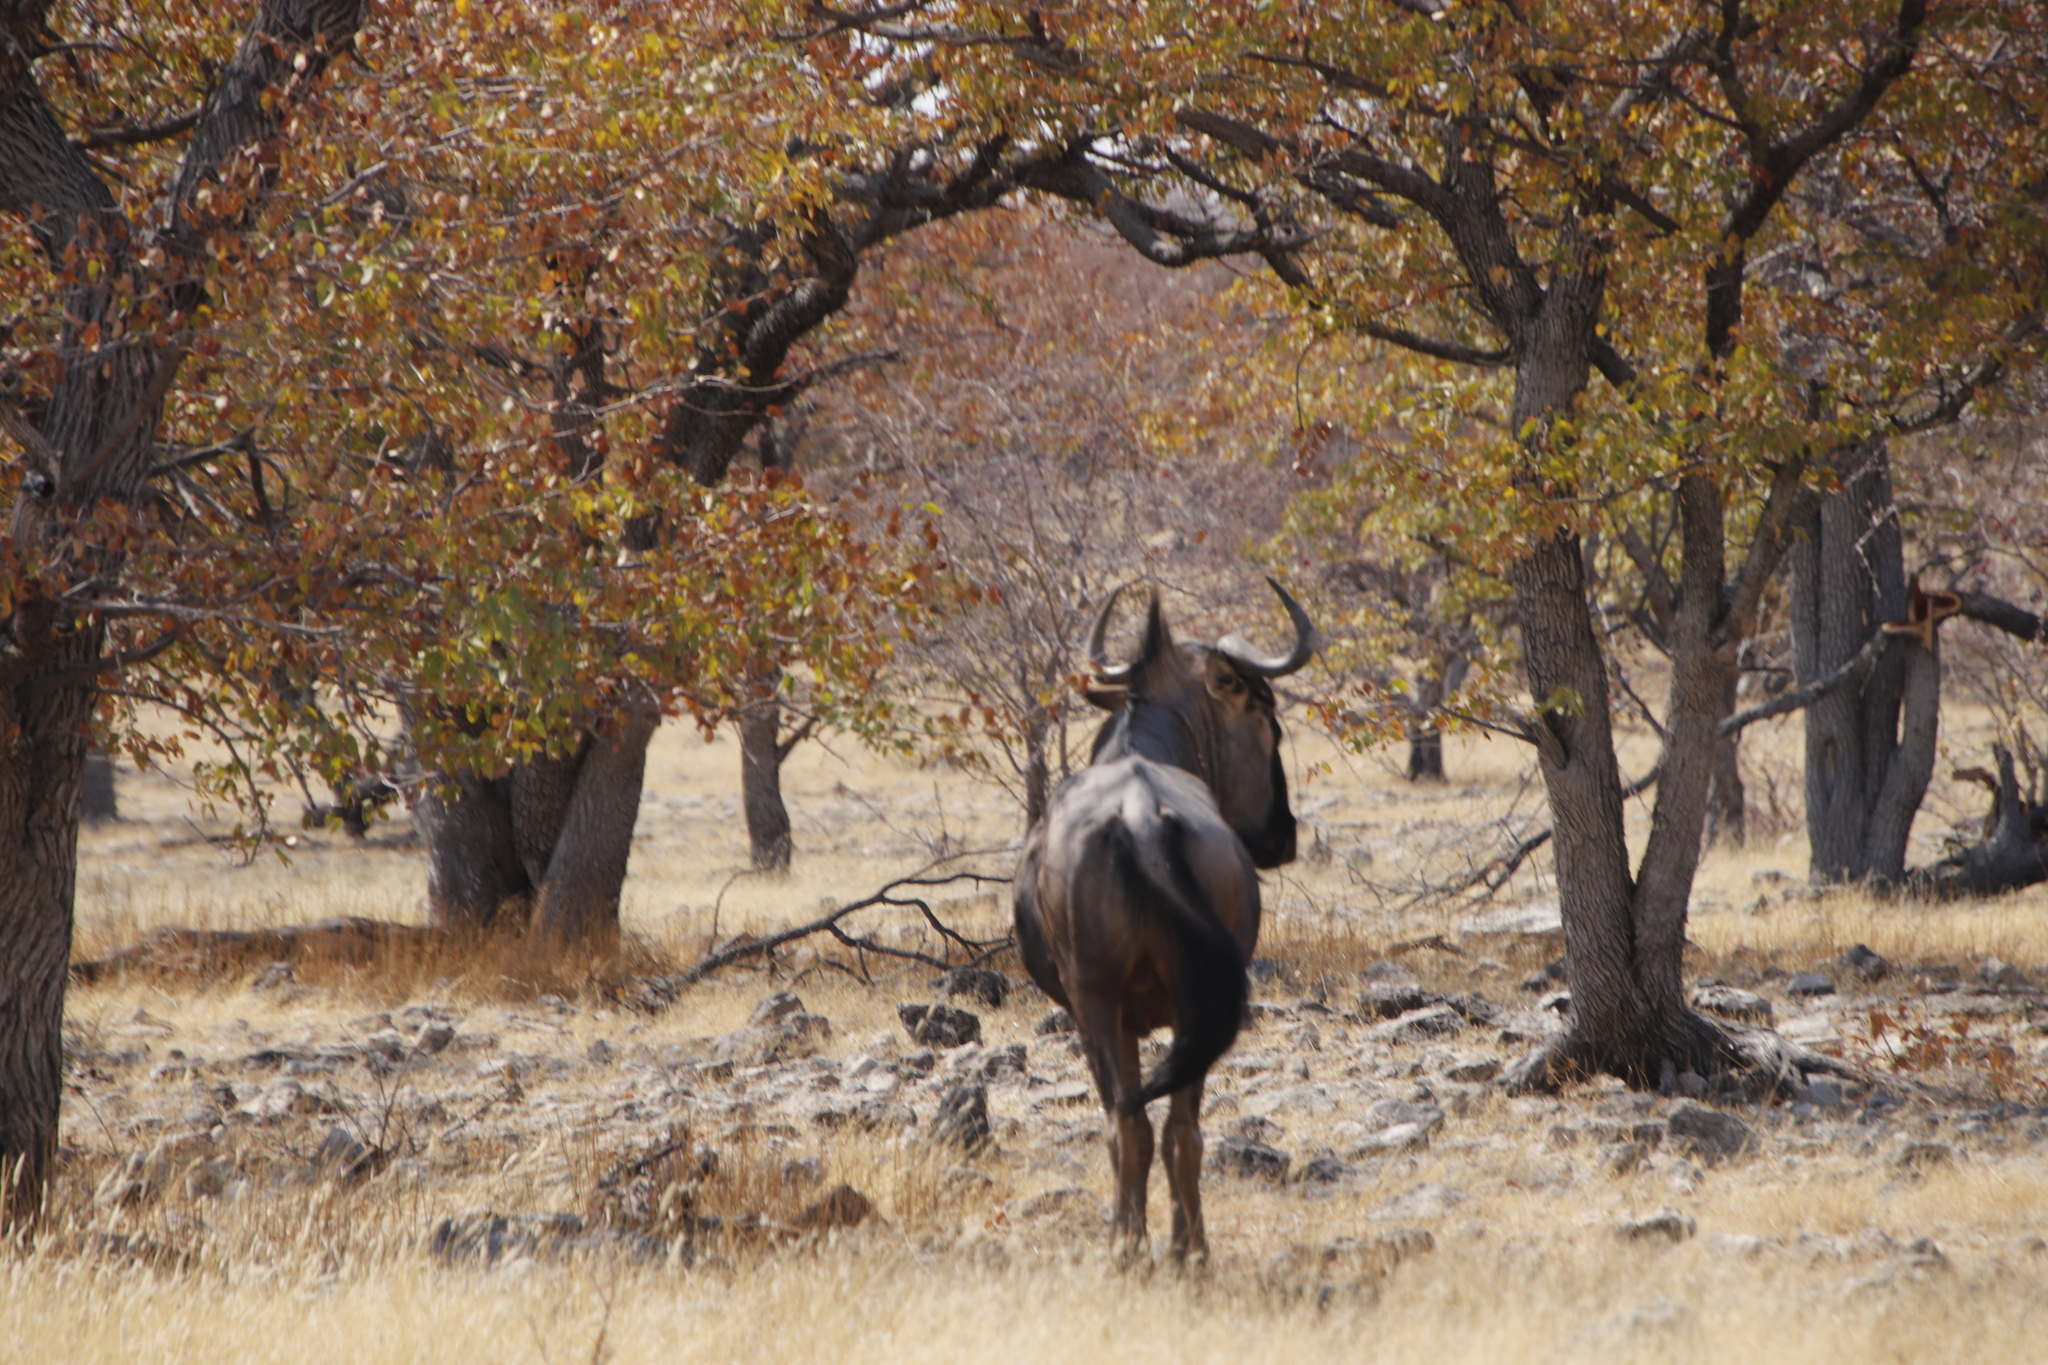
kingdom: Animalia
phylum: Chordata
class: Mammalia
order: Artiodactyla
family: Bovidae
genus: Connochaetes
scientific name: Connochaetes taurinus
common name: Blue wildebeest
